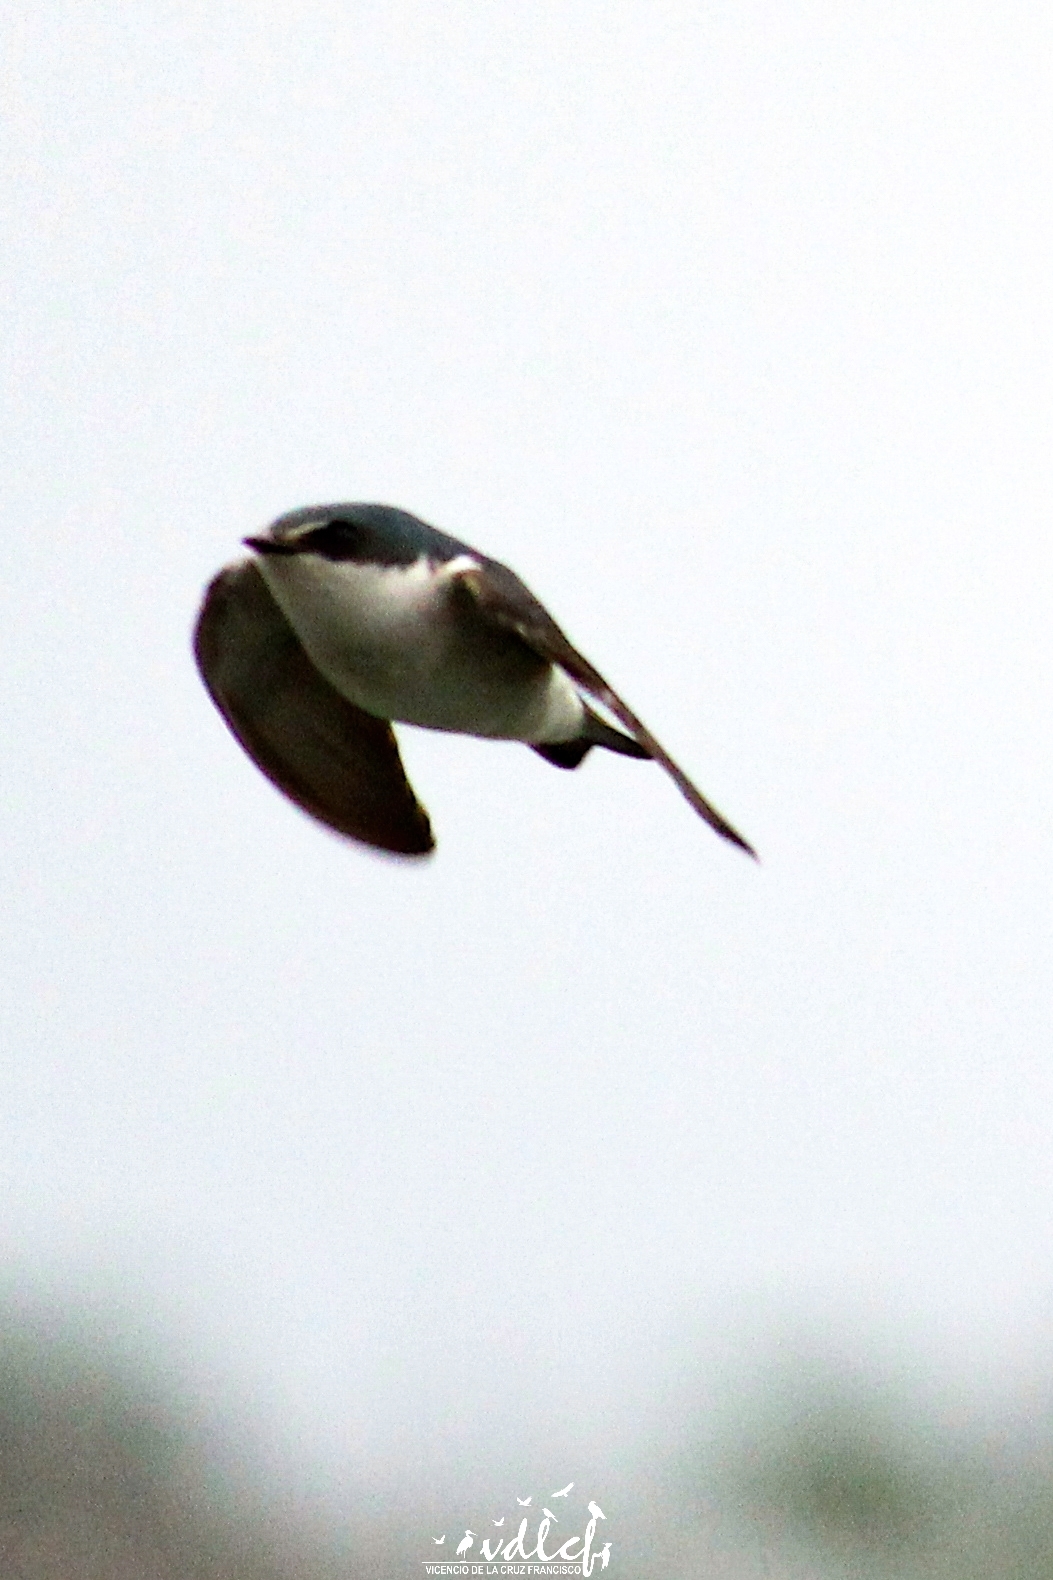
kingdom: Animalia
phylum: Chordata
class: Aves
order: Passeriformes
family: Hirundinidae
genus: Tachycineta
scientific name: Tachycineta albilinea
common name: Mangrove swallow
